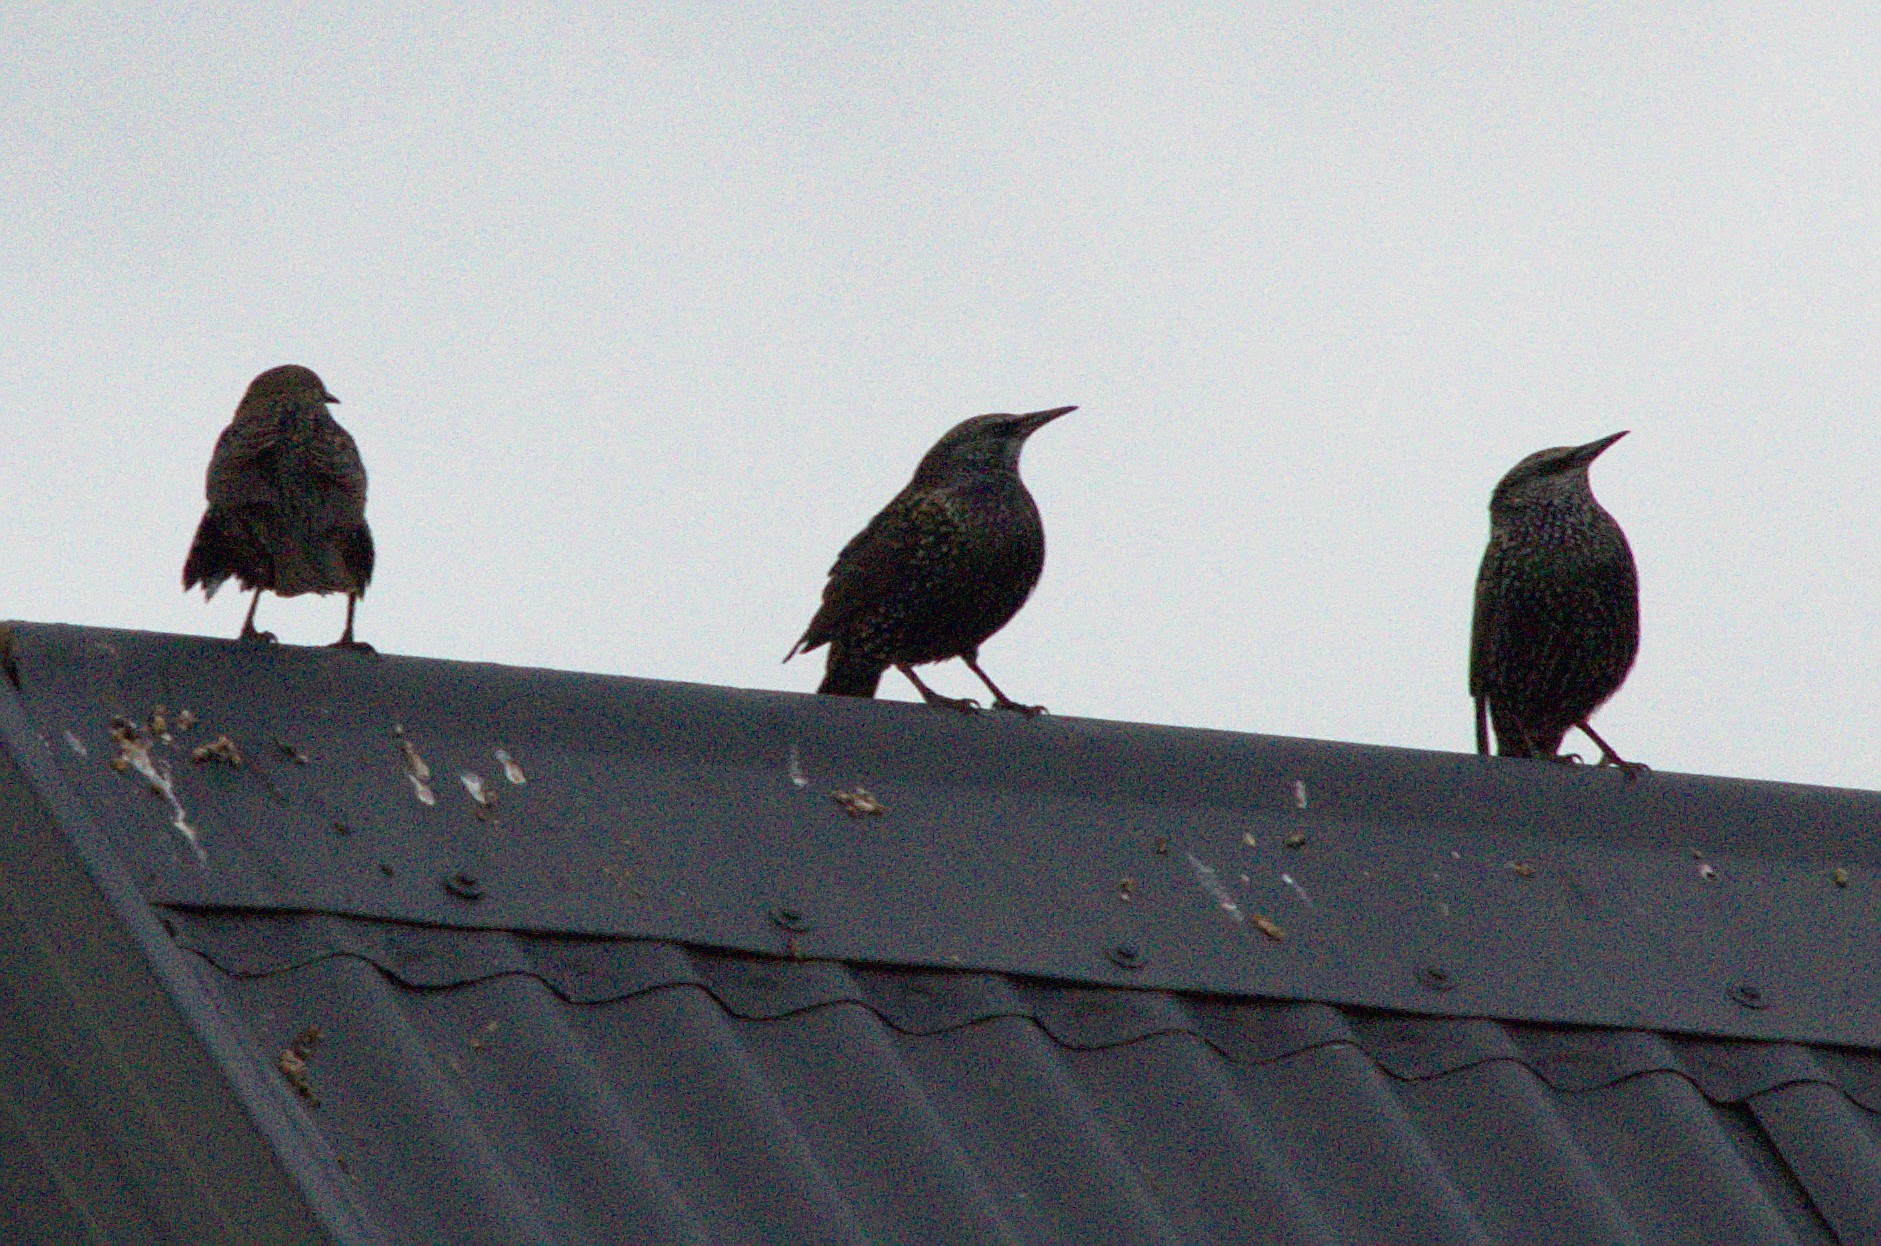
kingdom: Animalia
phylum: Chordata
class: Aves
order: Passeriformes
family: Sturnidae
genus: Sturnus
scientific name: Sturnus vulgaris
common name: Common starling
